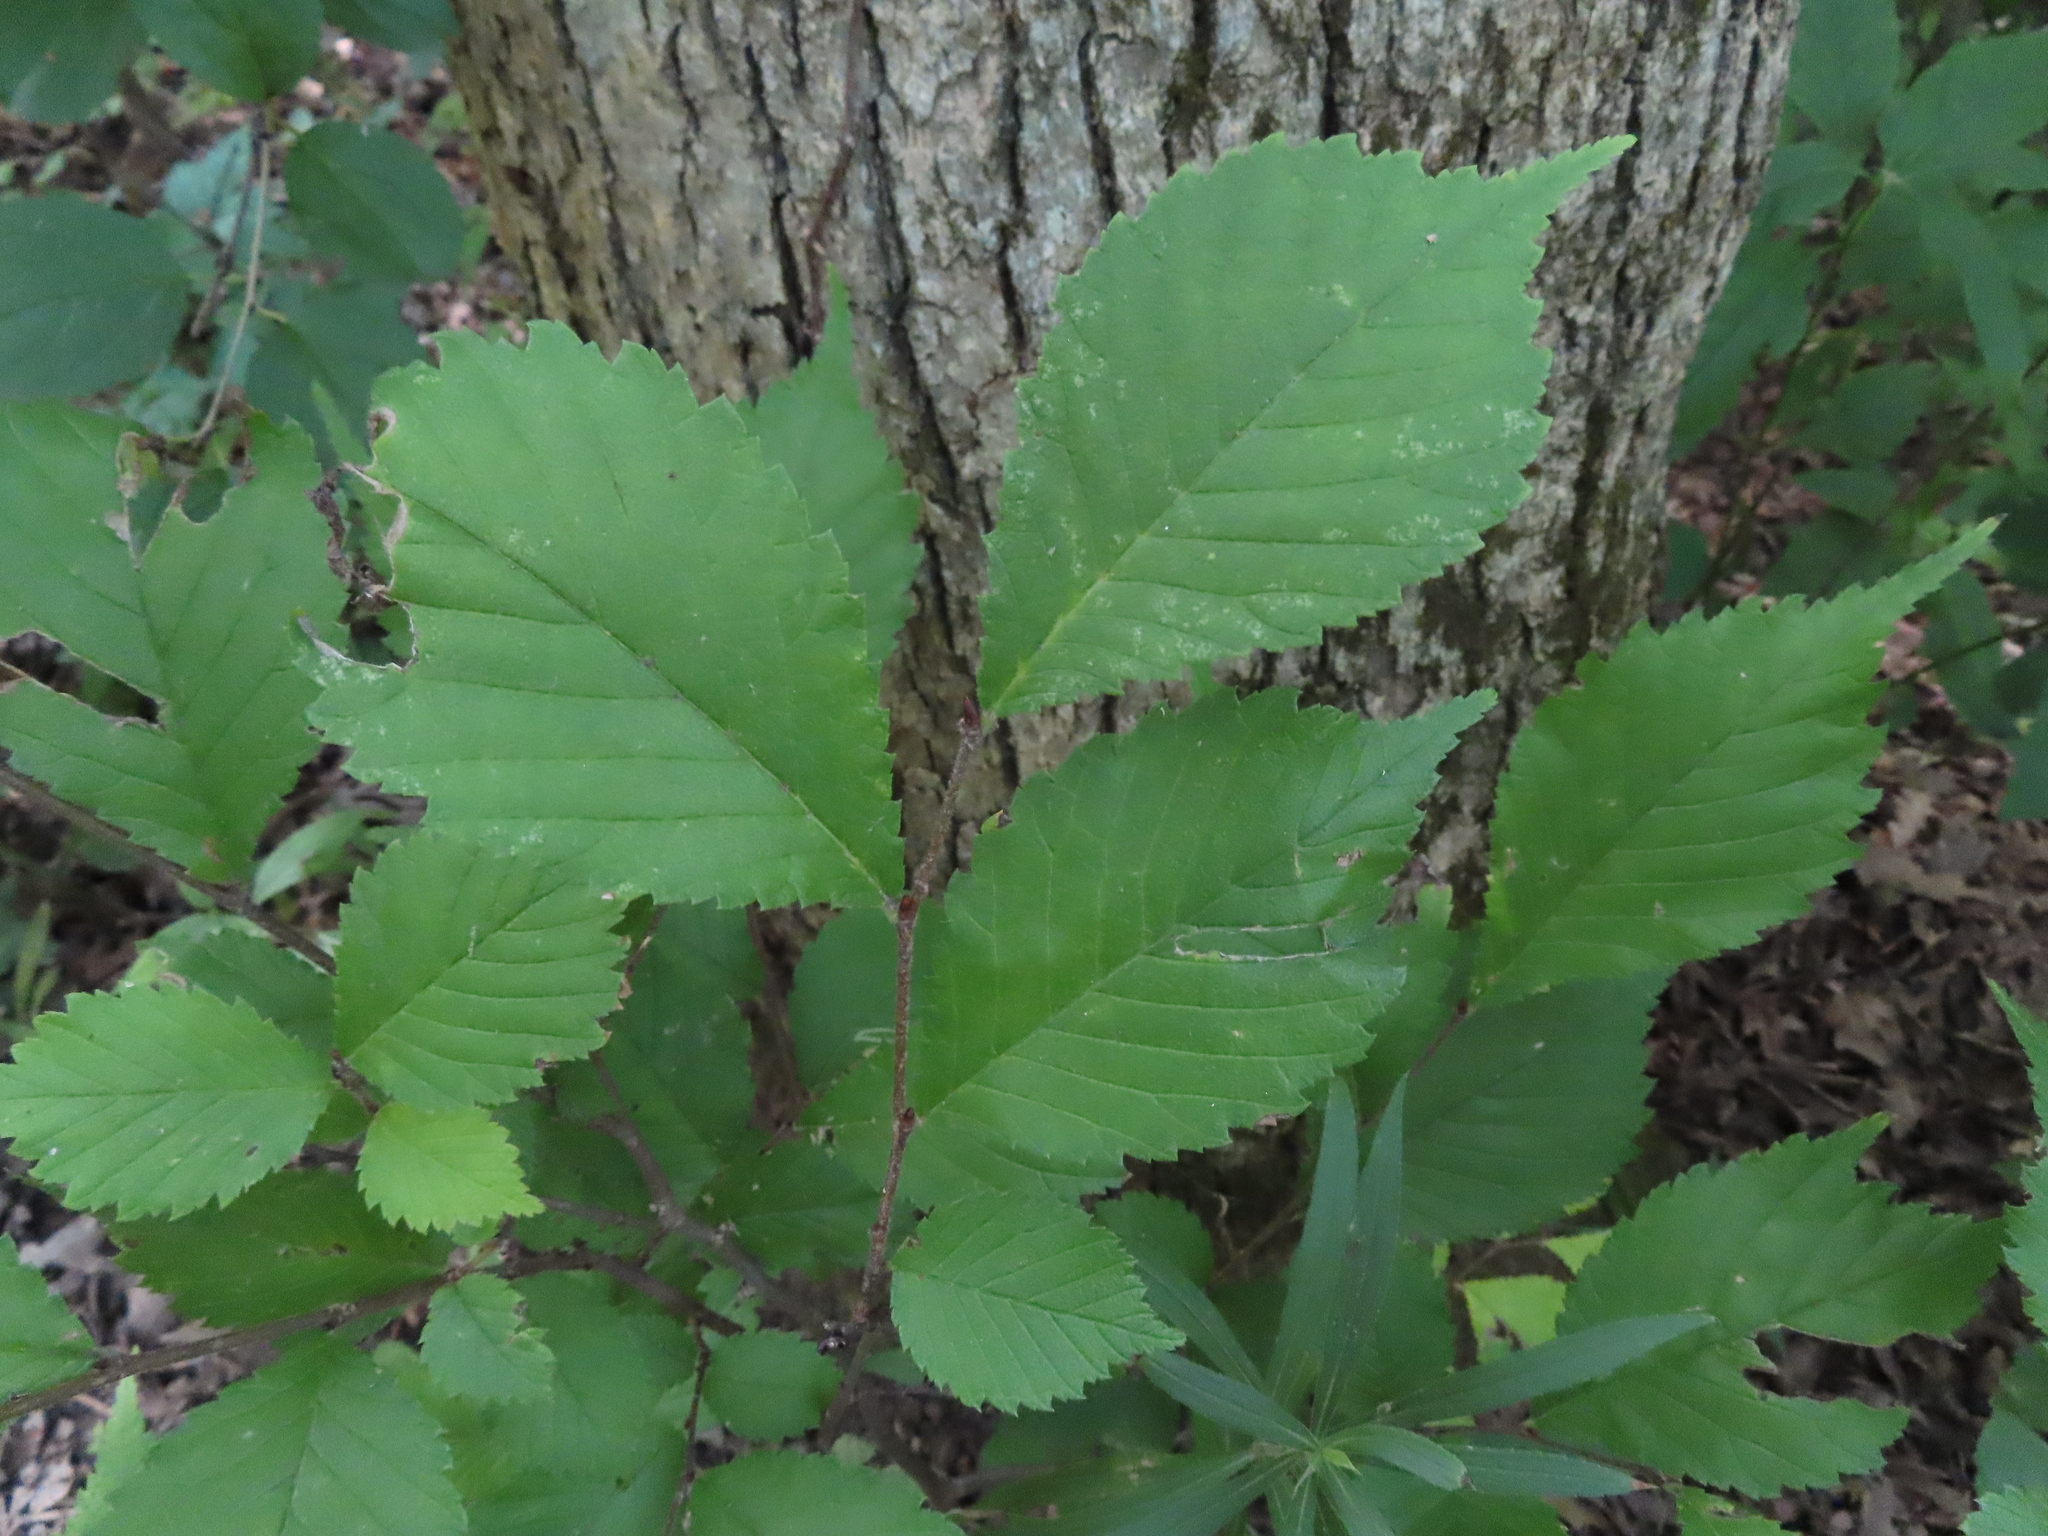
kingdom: Plantae
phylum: Tracheophyta
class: Magnoliopsida
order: Rosales
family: Ulmaceae
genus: Ulmus
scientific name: Ulmus rubra
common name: Slippery elm
